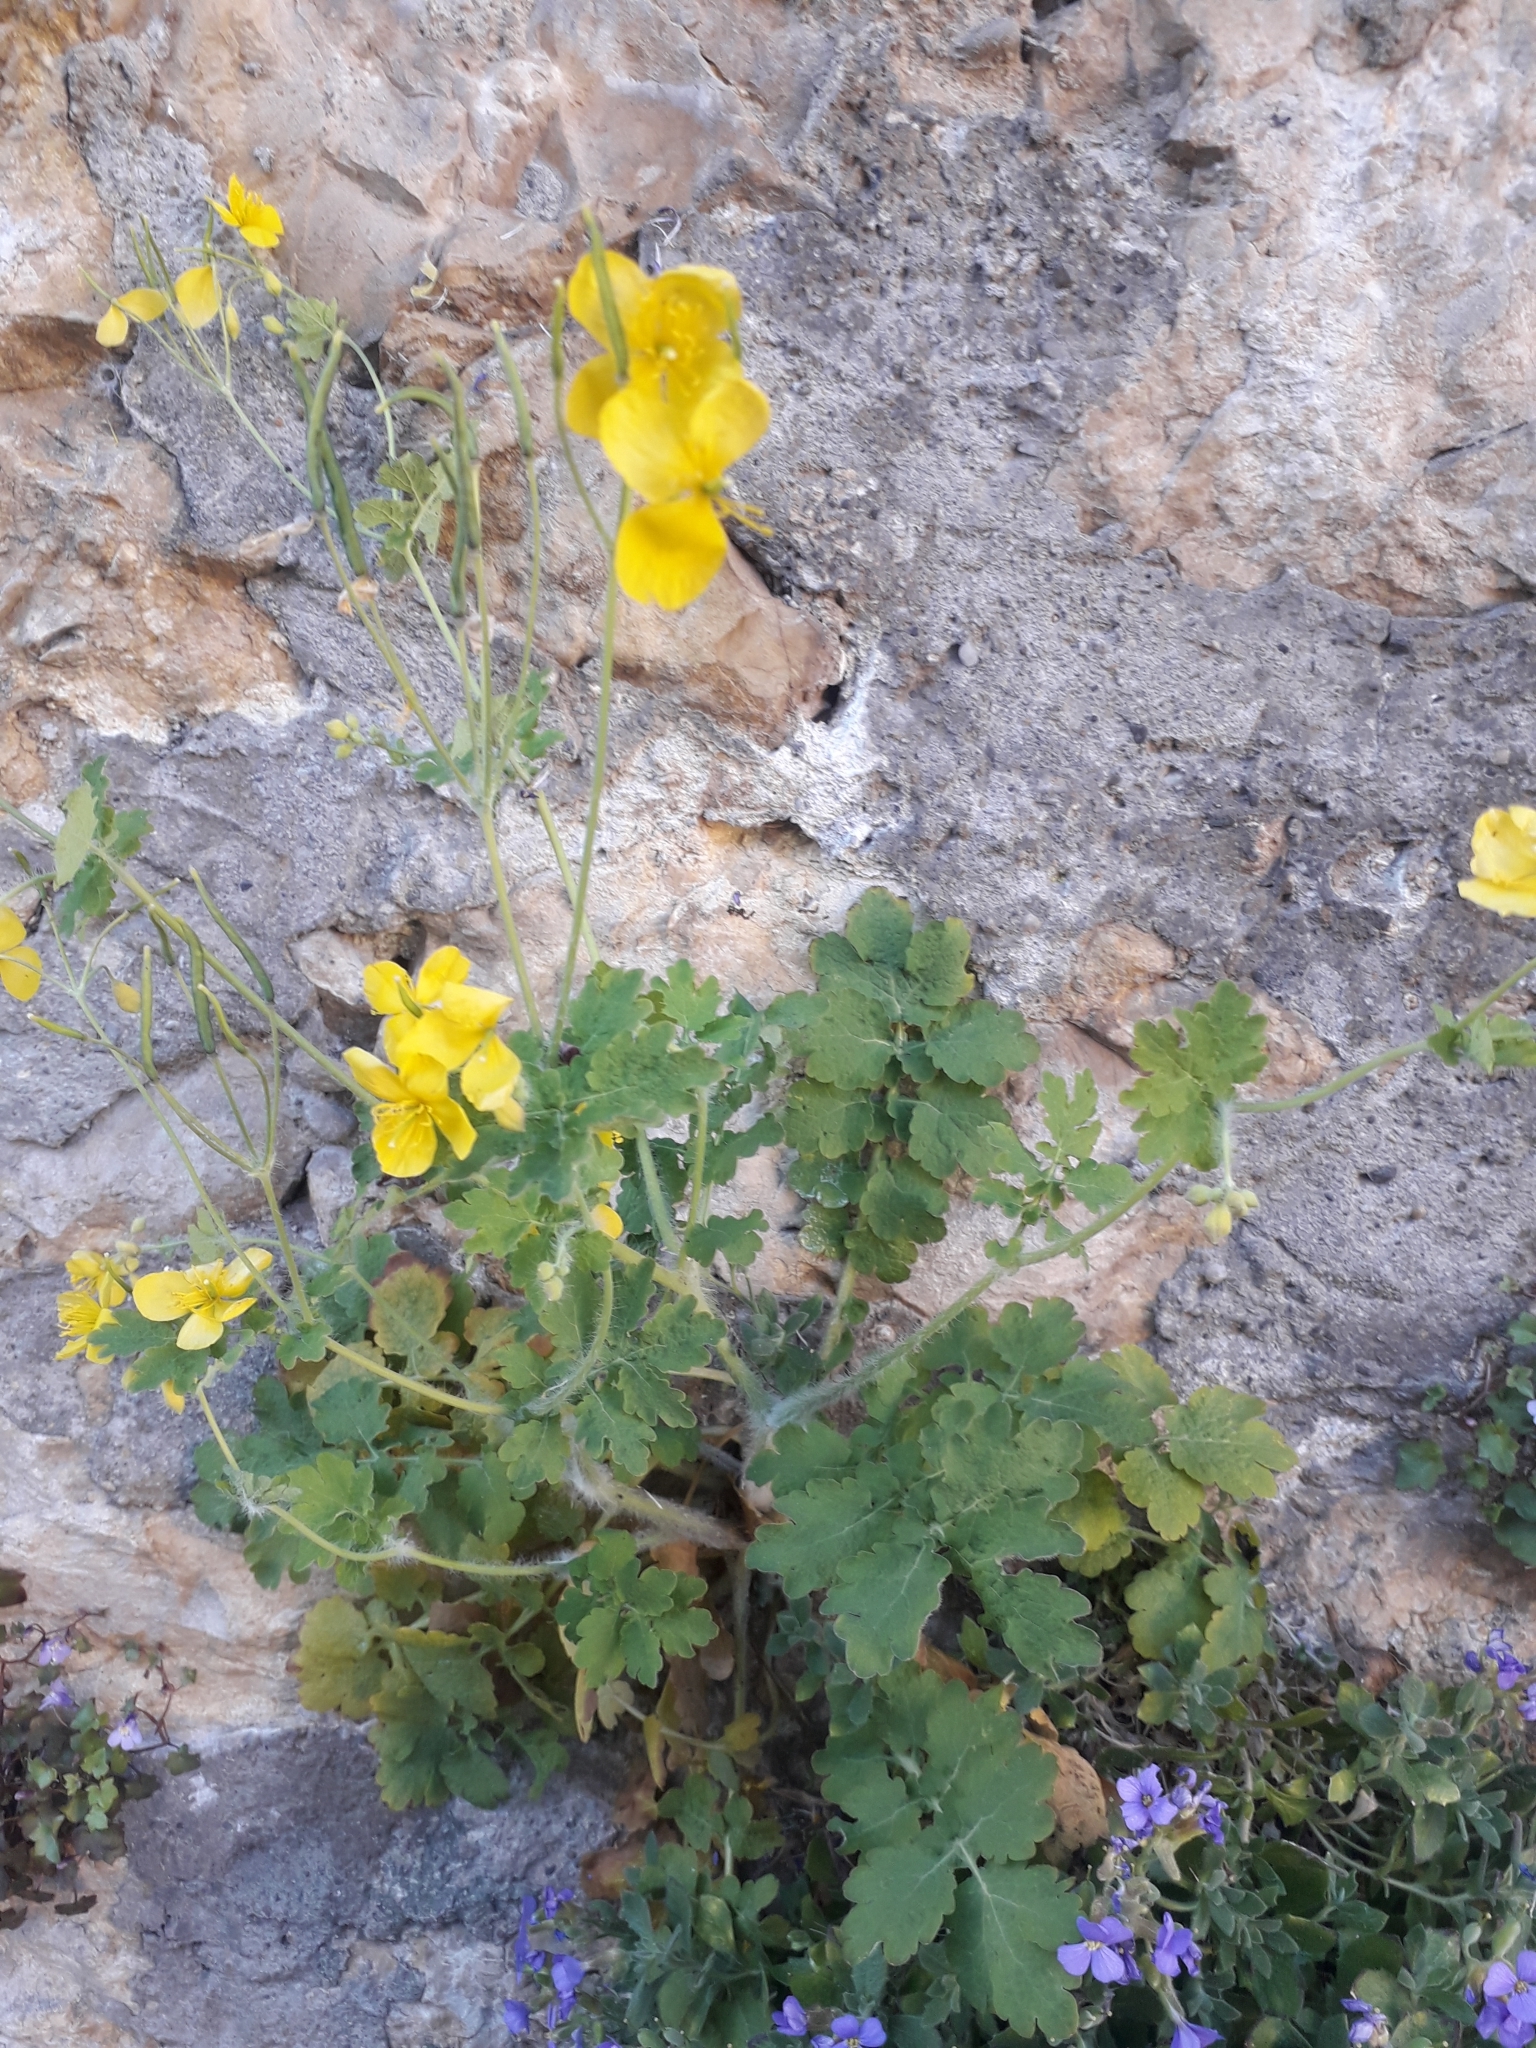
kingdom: Plantae
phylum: Tracheophyta
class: Magnoliopsida
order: Ranunculales
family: Papaveraceae
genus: Chelidonium
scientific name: Chelidonium majus
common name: Greater celandine
